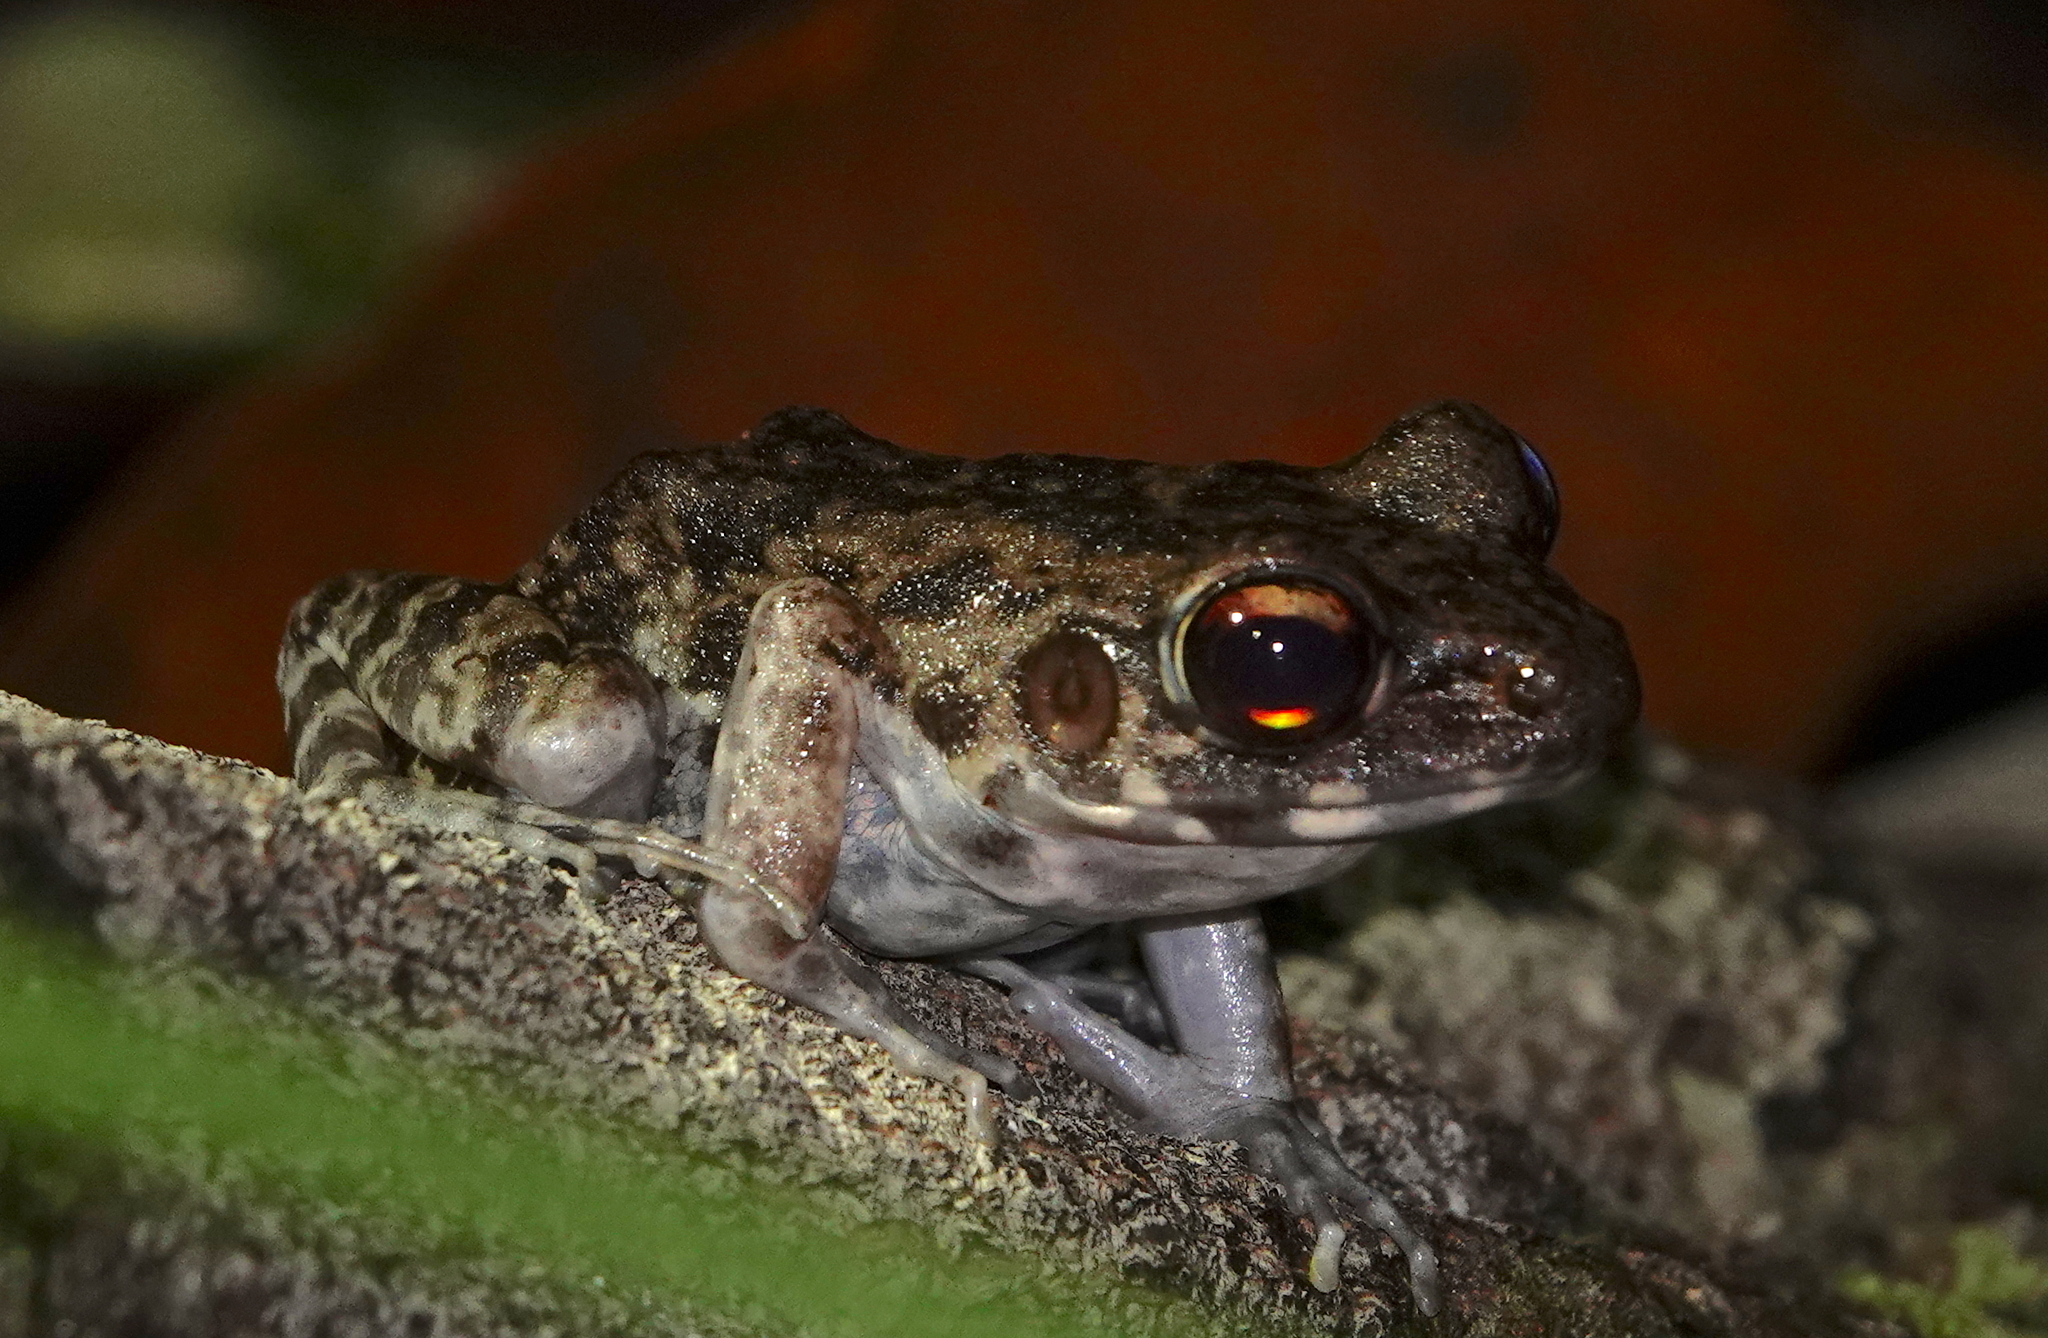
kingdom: Animalia
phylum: Chordata
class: Amphibia
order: Anura
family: Ranidae
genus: Pulchrana
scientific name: Pulchrana glandulosa
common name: Rough-sided frog
